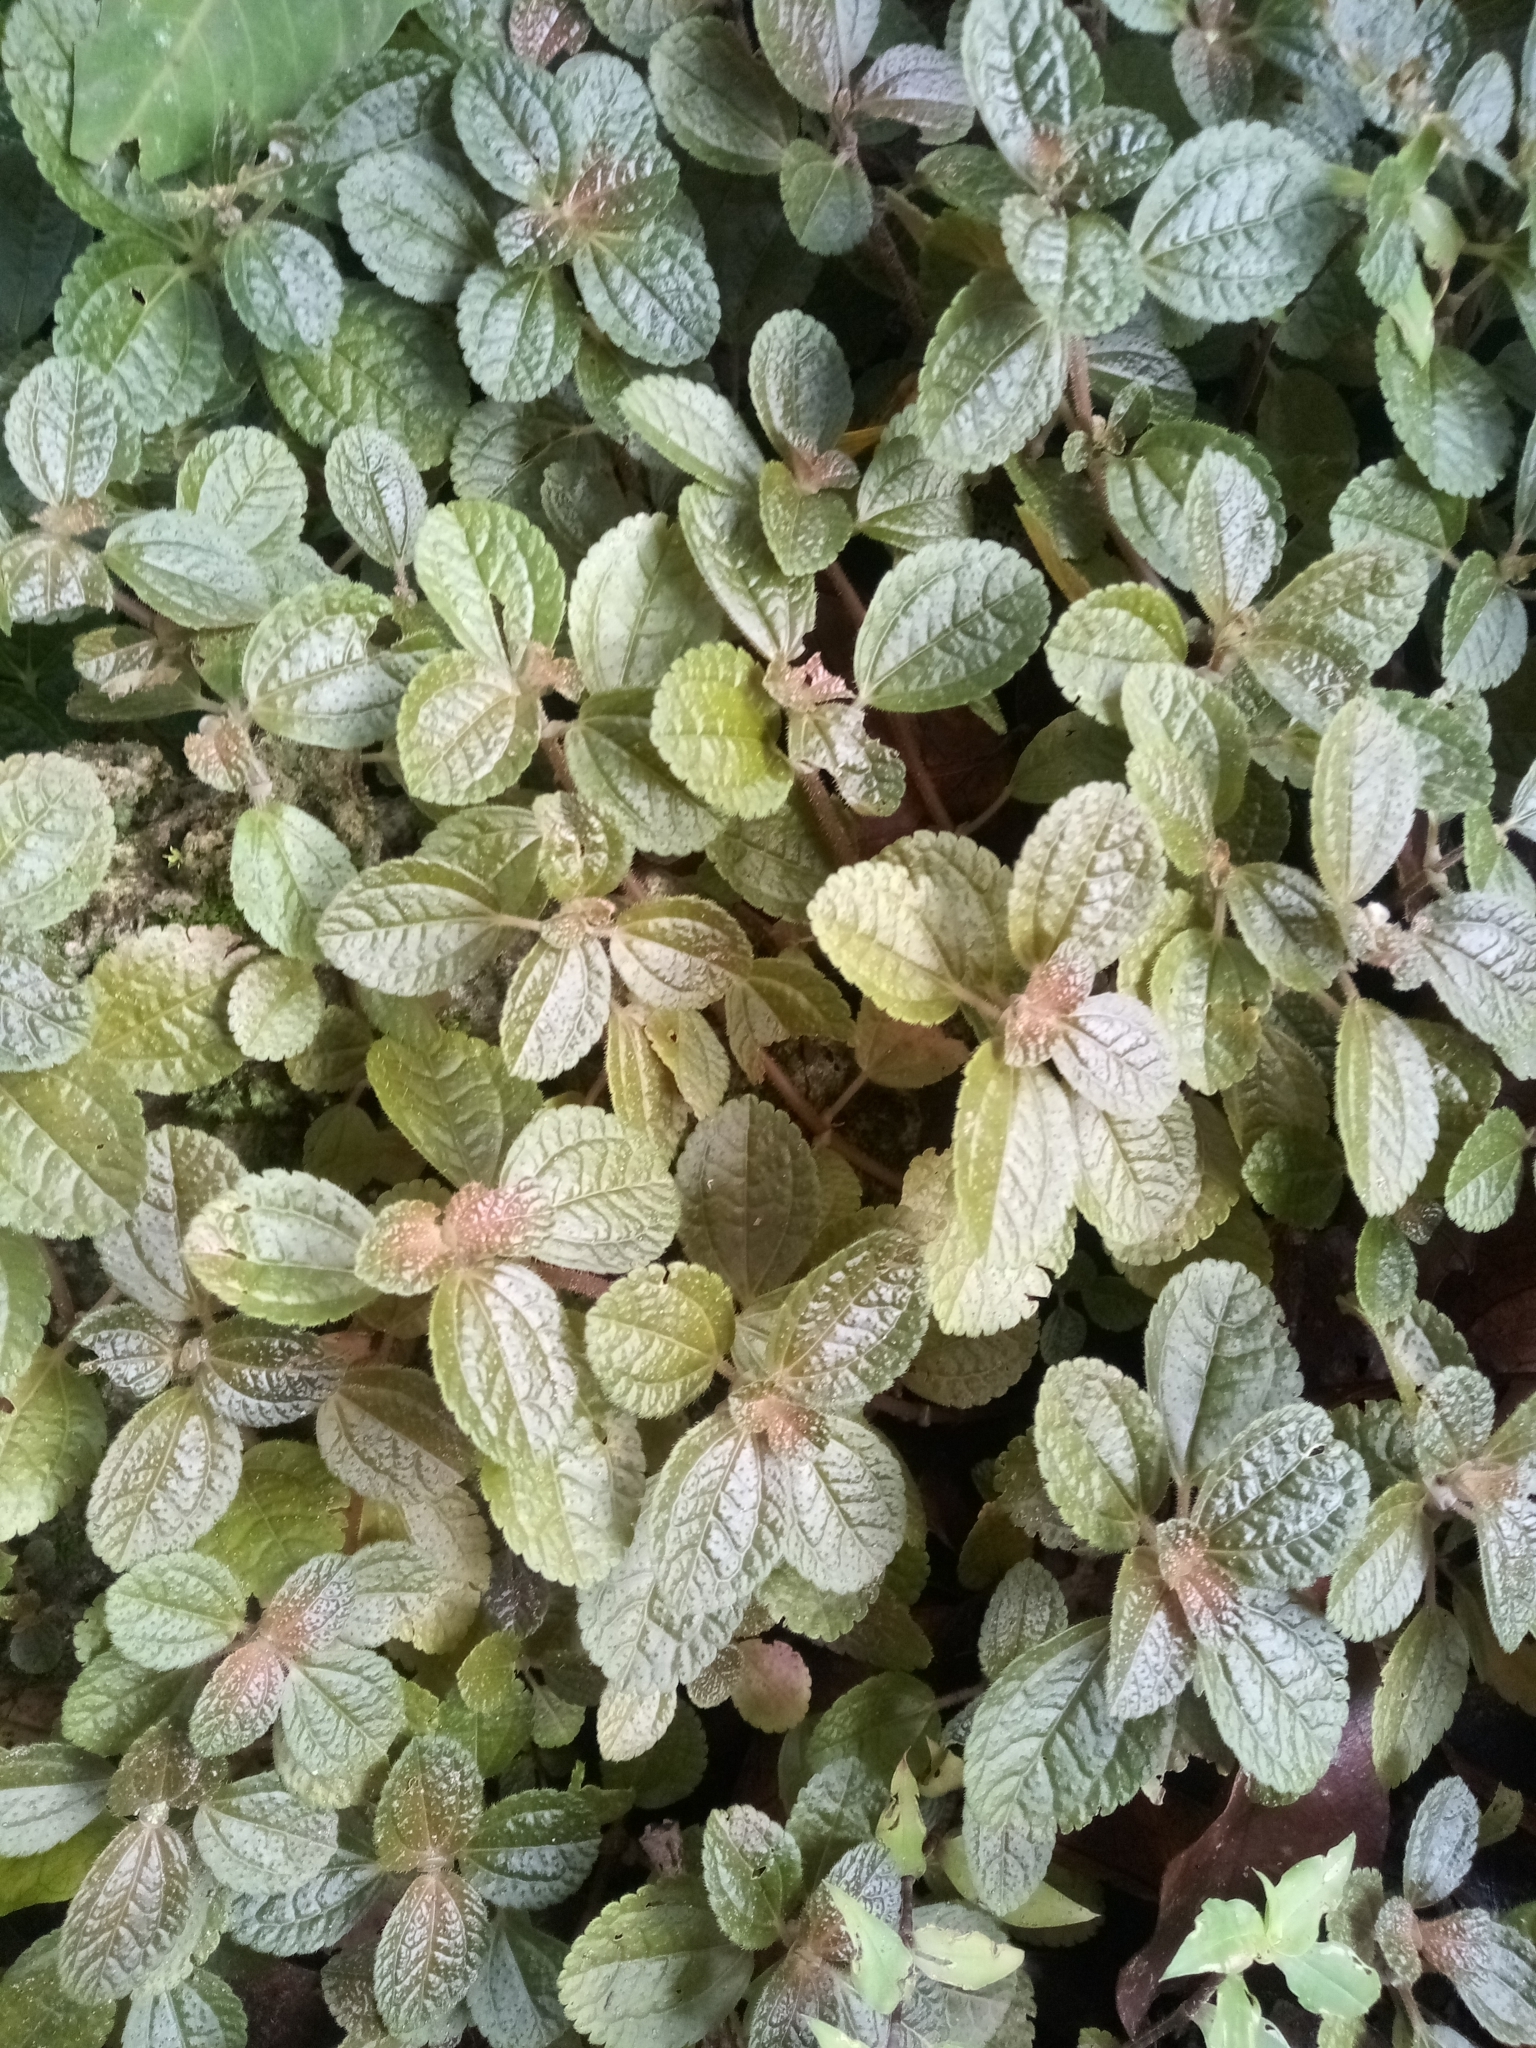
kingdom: Plantae
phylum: Tracheophyta
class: Magnoliopsida
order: Rosales
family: Urticaceae
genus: Pilea
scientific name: Pilea nummulariifolia
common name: Creeping-charlie
